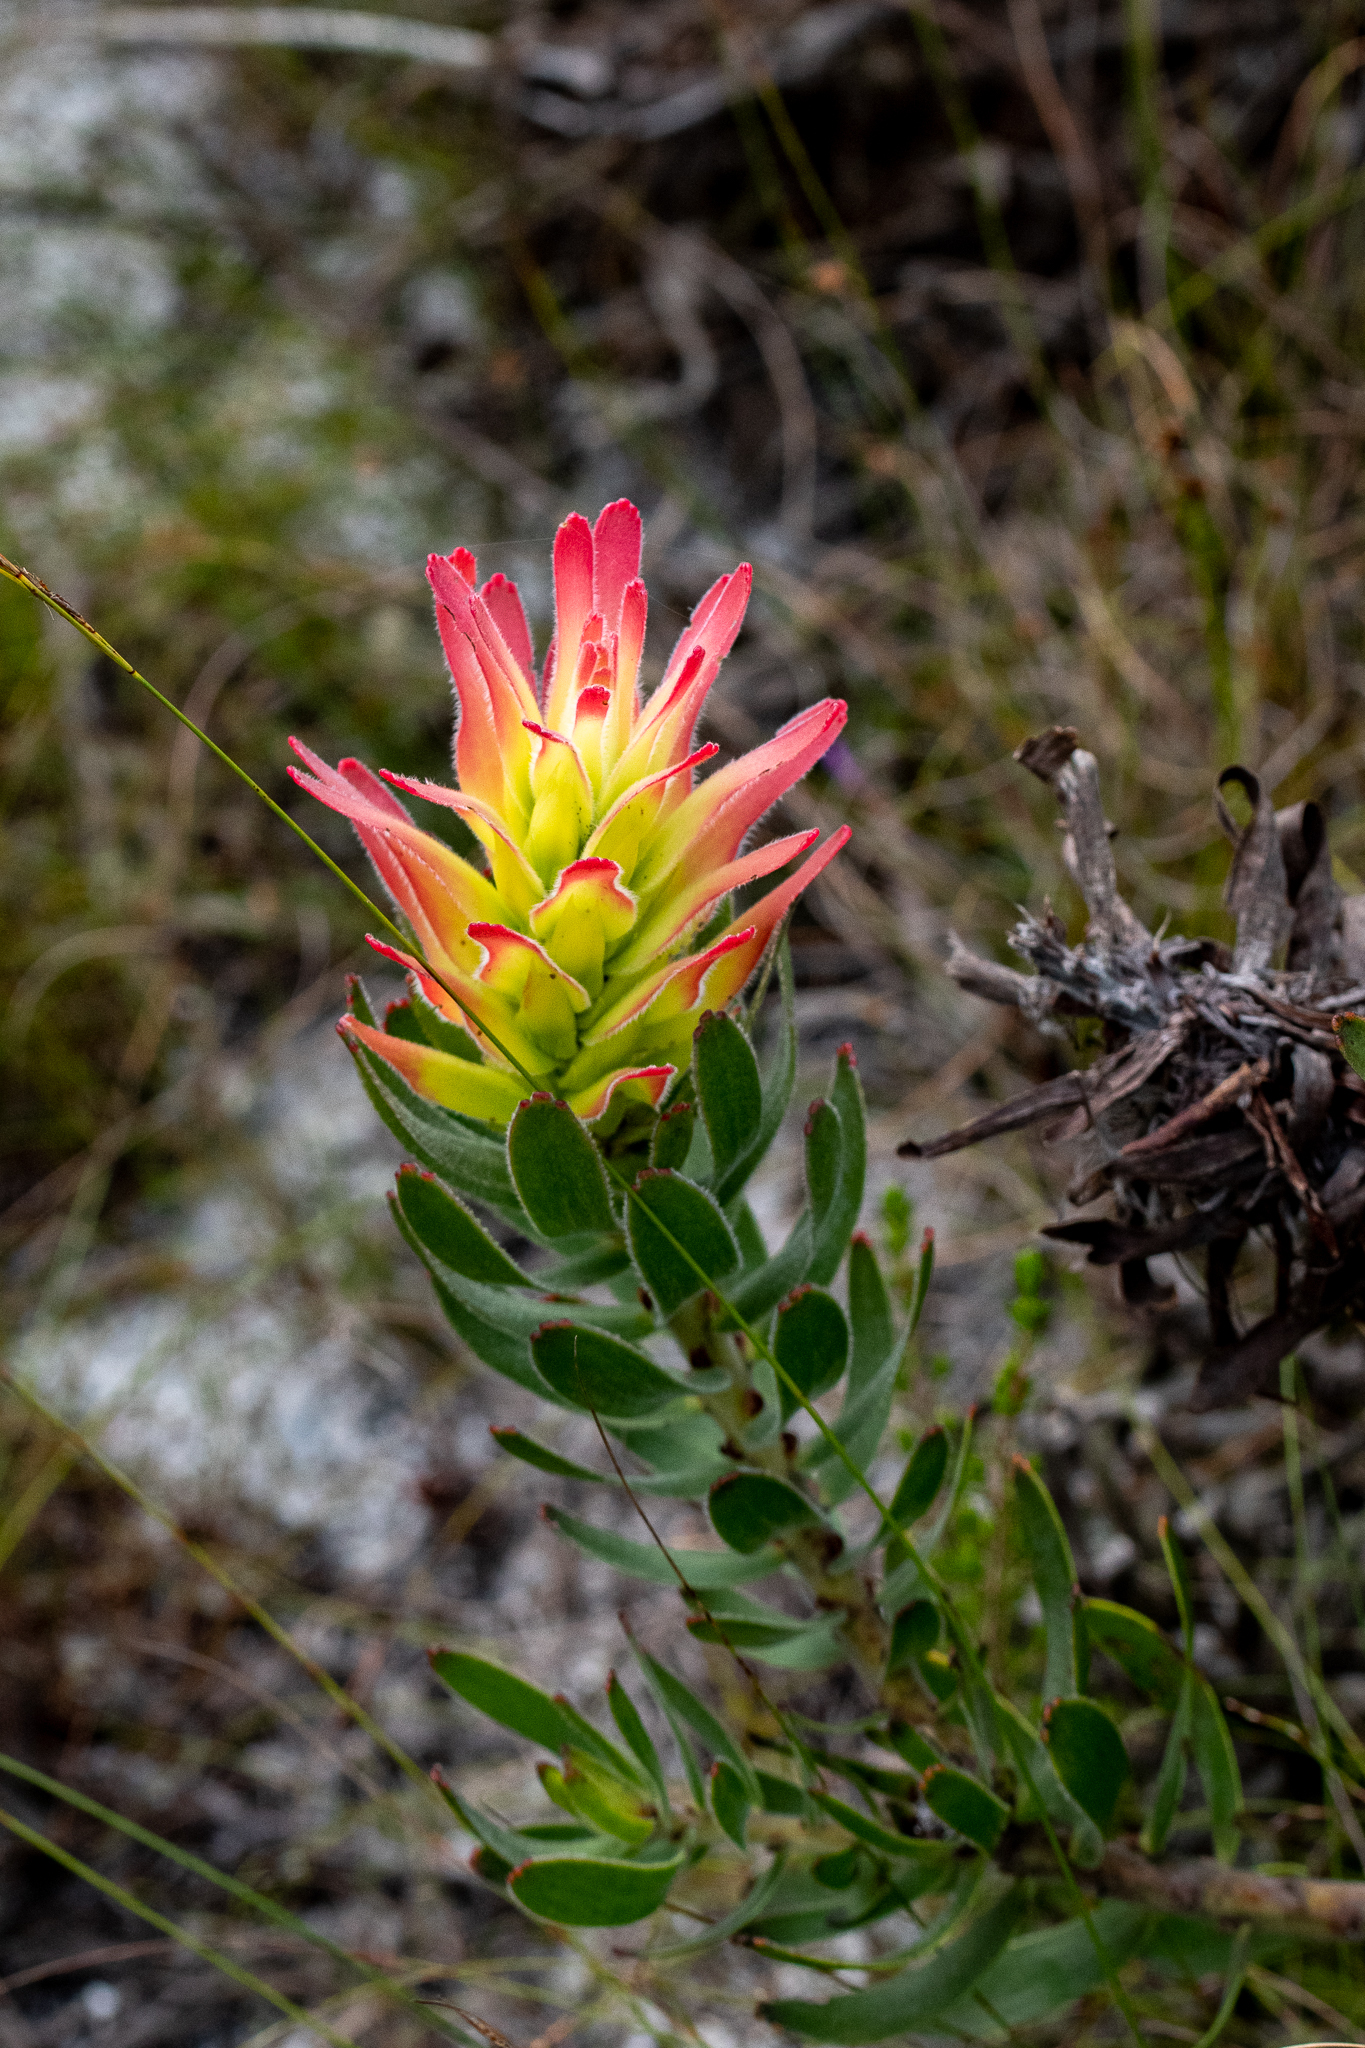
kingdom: Plantae
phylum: Tracheophyta
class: Magnoliopsida
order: Proteales
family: Proteaceae
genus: Mimetes
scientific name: Mimetes cucullatus
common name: Common pagoda
